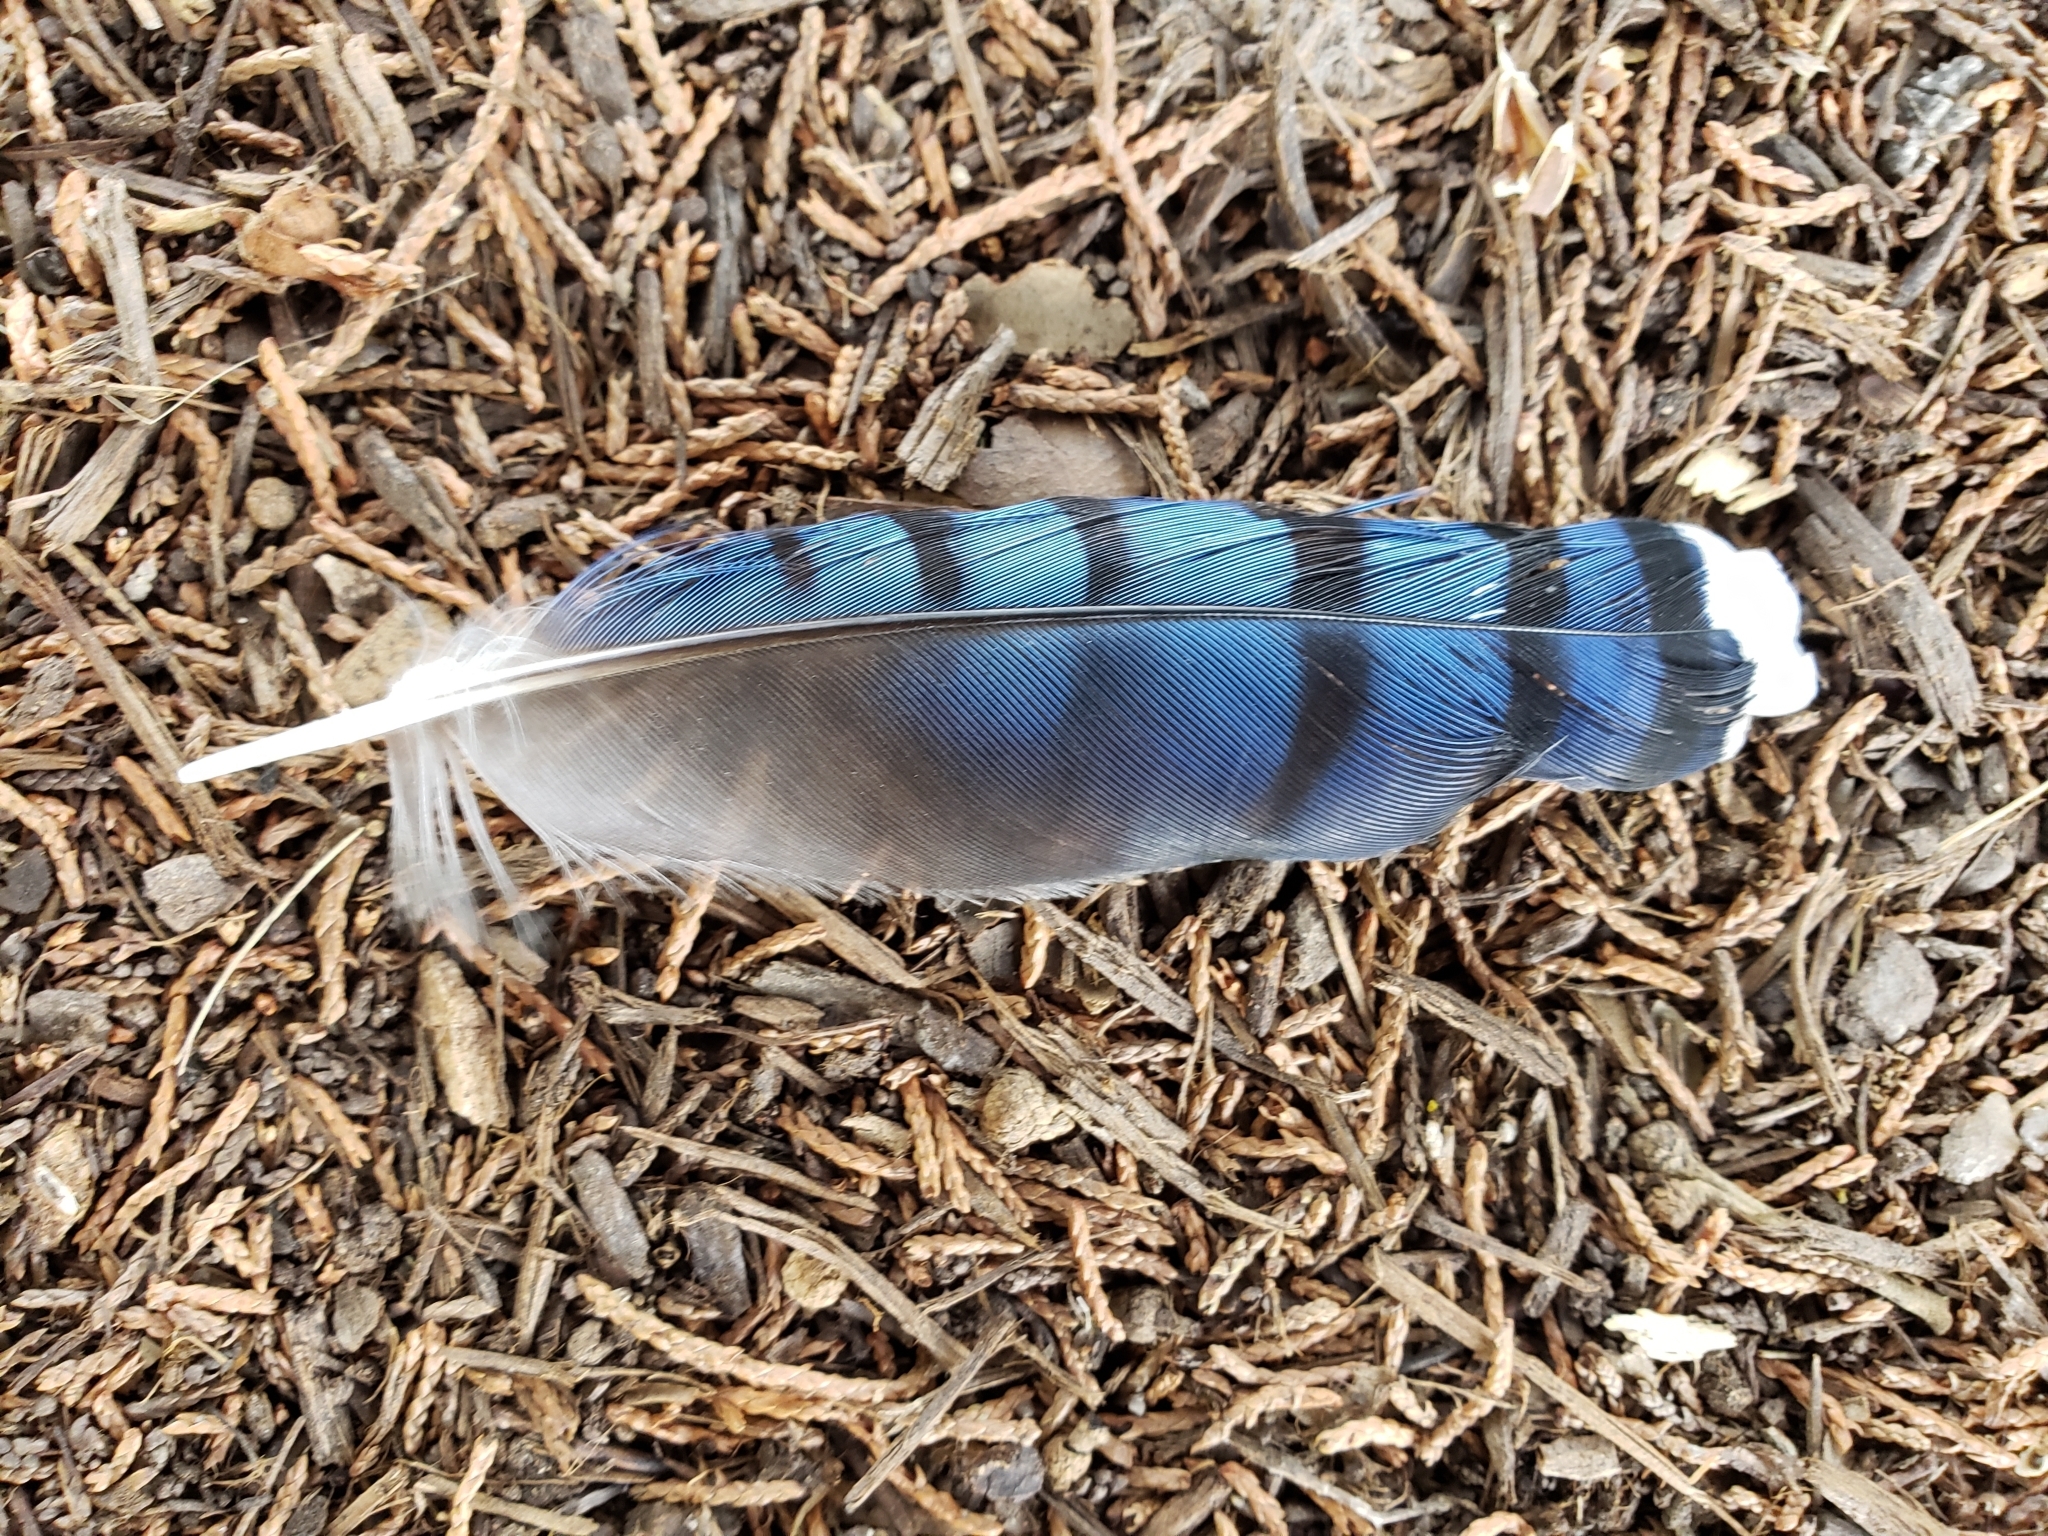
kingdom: Animalia
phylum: Chordata
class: Aves
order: Passeriformes
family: Corvidae
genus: Cyanocitta
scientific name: Cyanocitta cristata
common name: Blue jay
